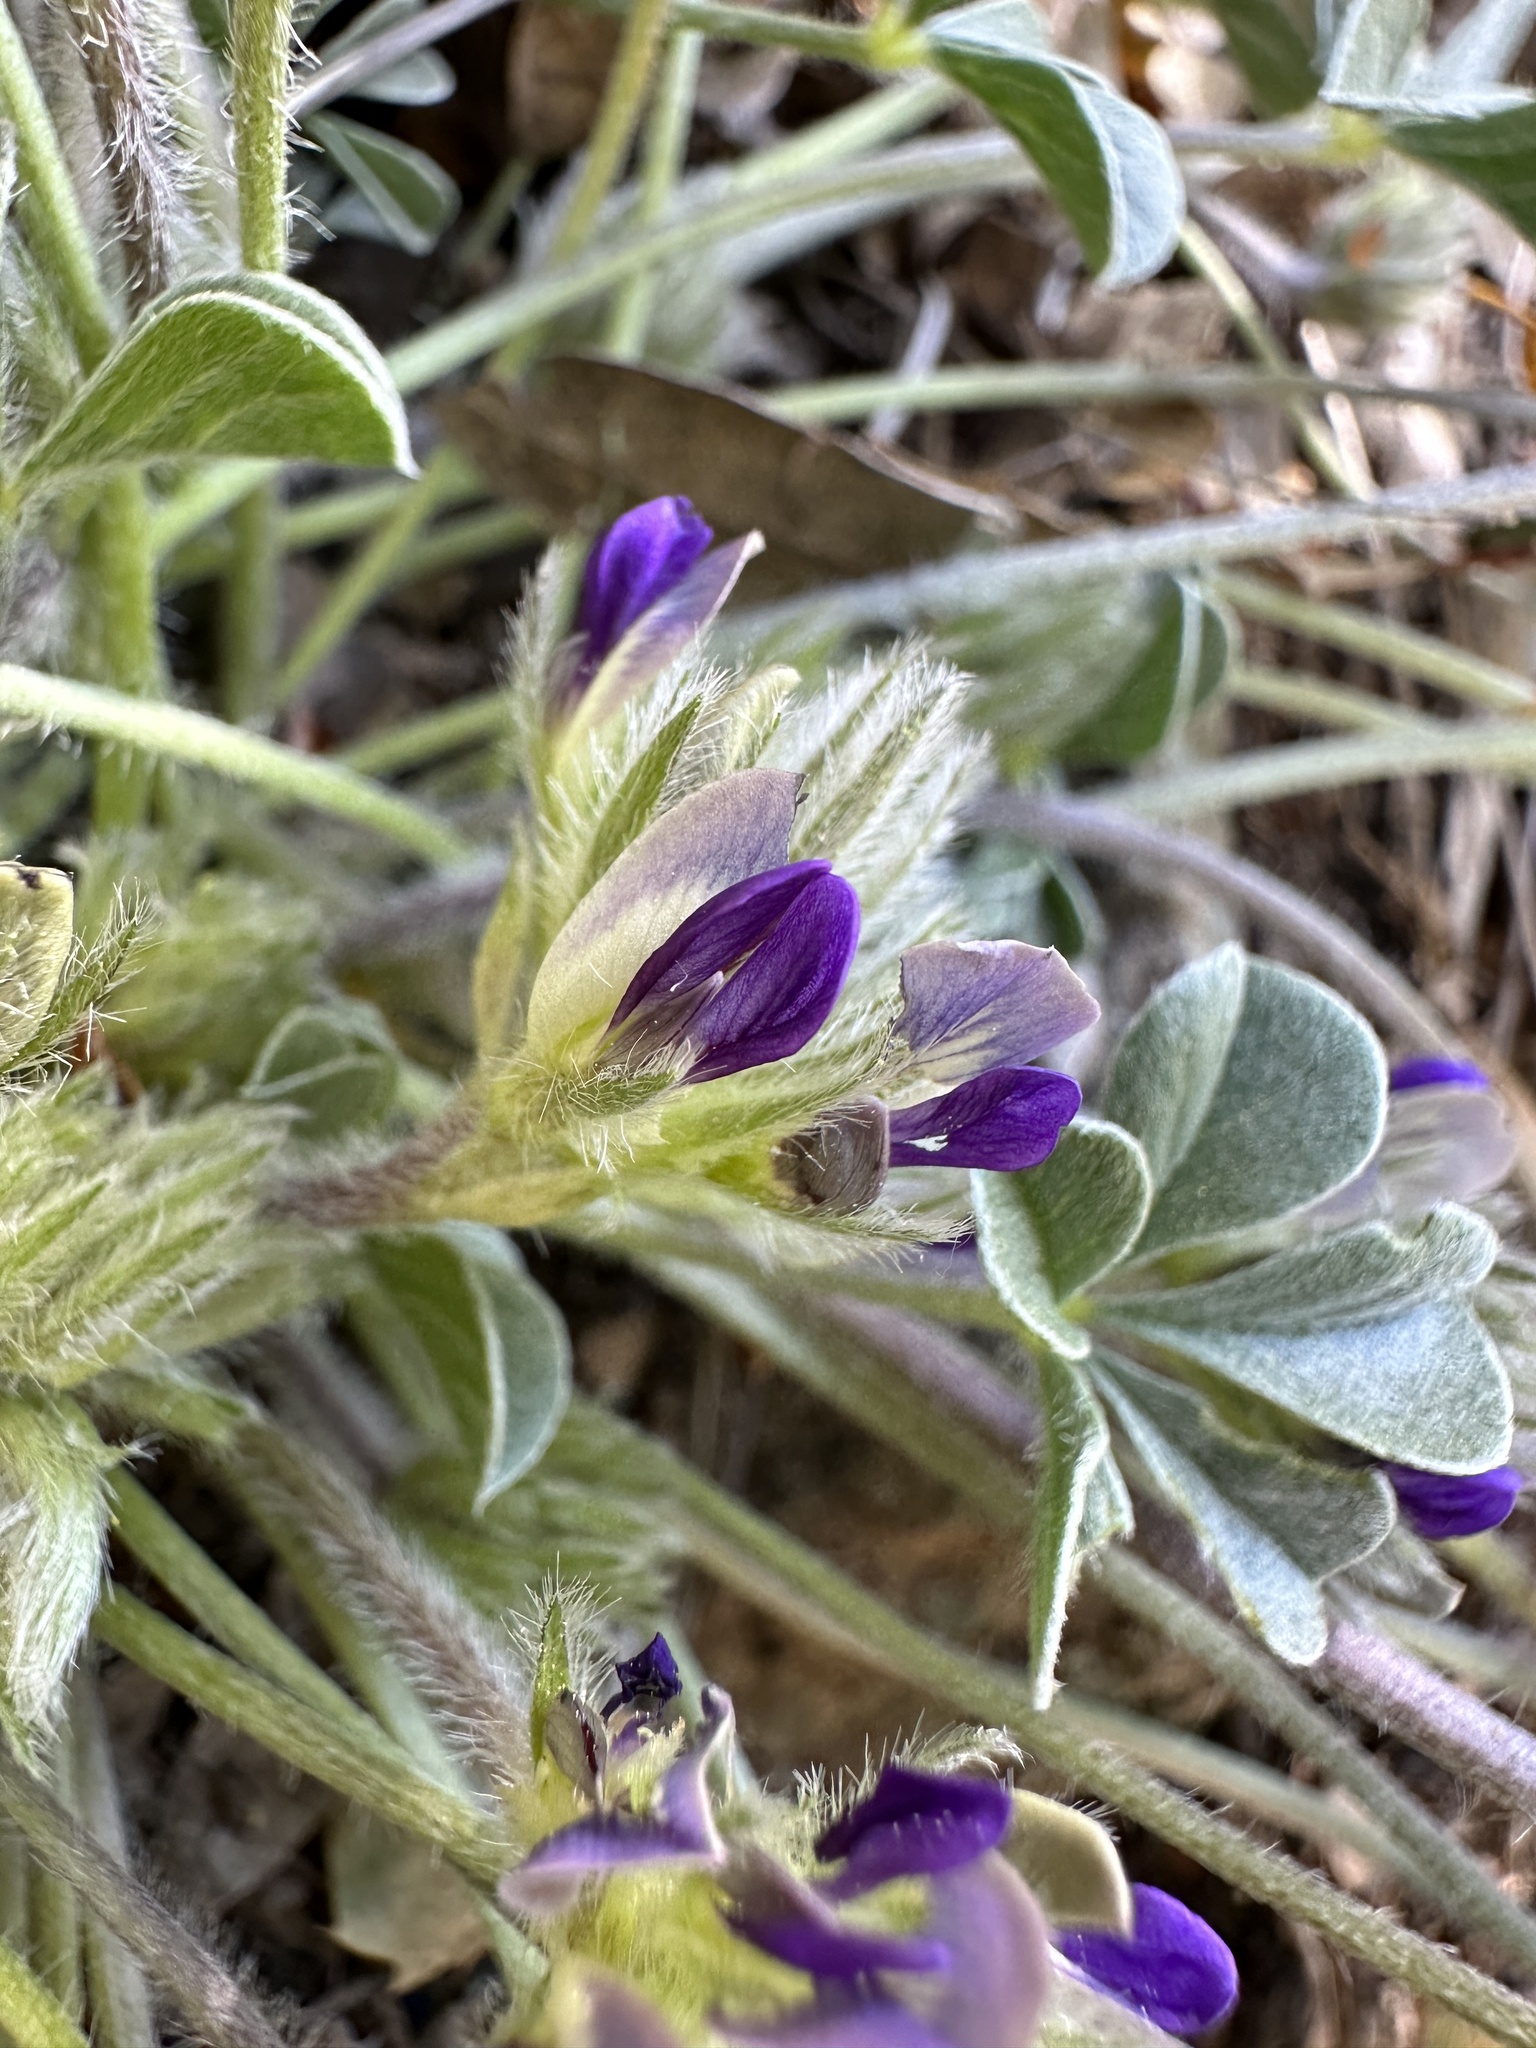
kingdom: Plantae
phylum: Tracheophyta
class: Magnoliopsida
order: Fabales
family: Fabaceae
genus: Pediomelum
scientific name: Pediomelum californicum
